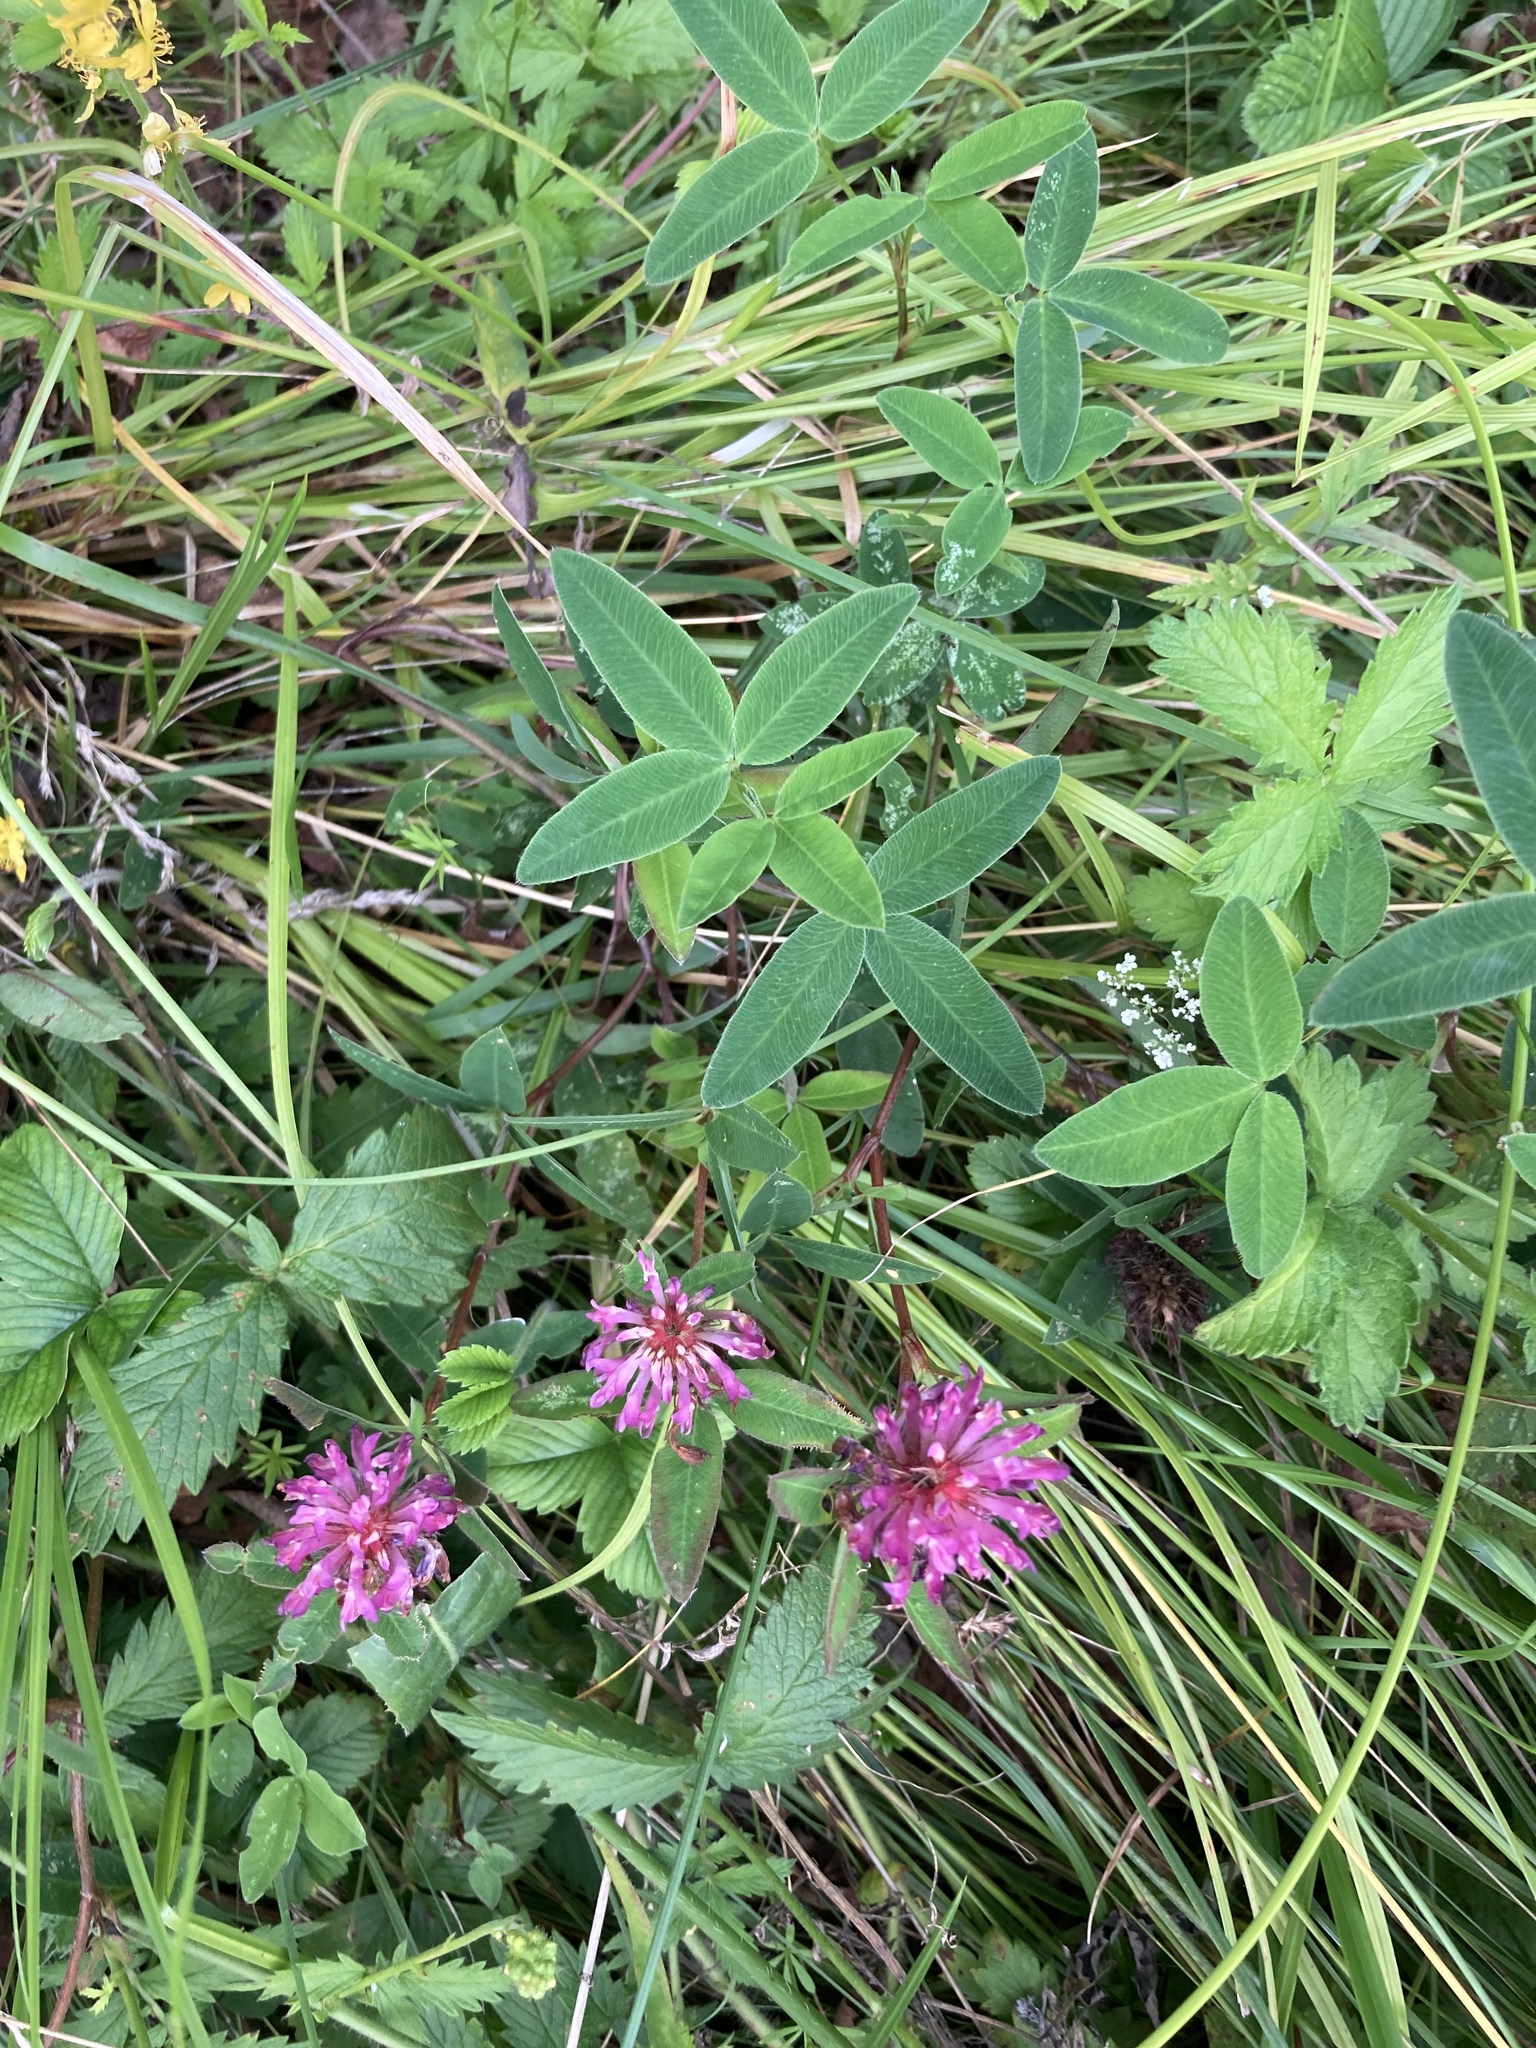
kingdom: Plantae
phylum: Tracheophyta
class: Magnoliopsida
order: Fabales
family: Fabaceae
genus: Trifolium
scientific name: Trifolium medium
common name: Zigzag clover
